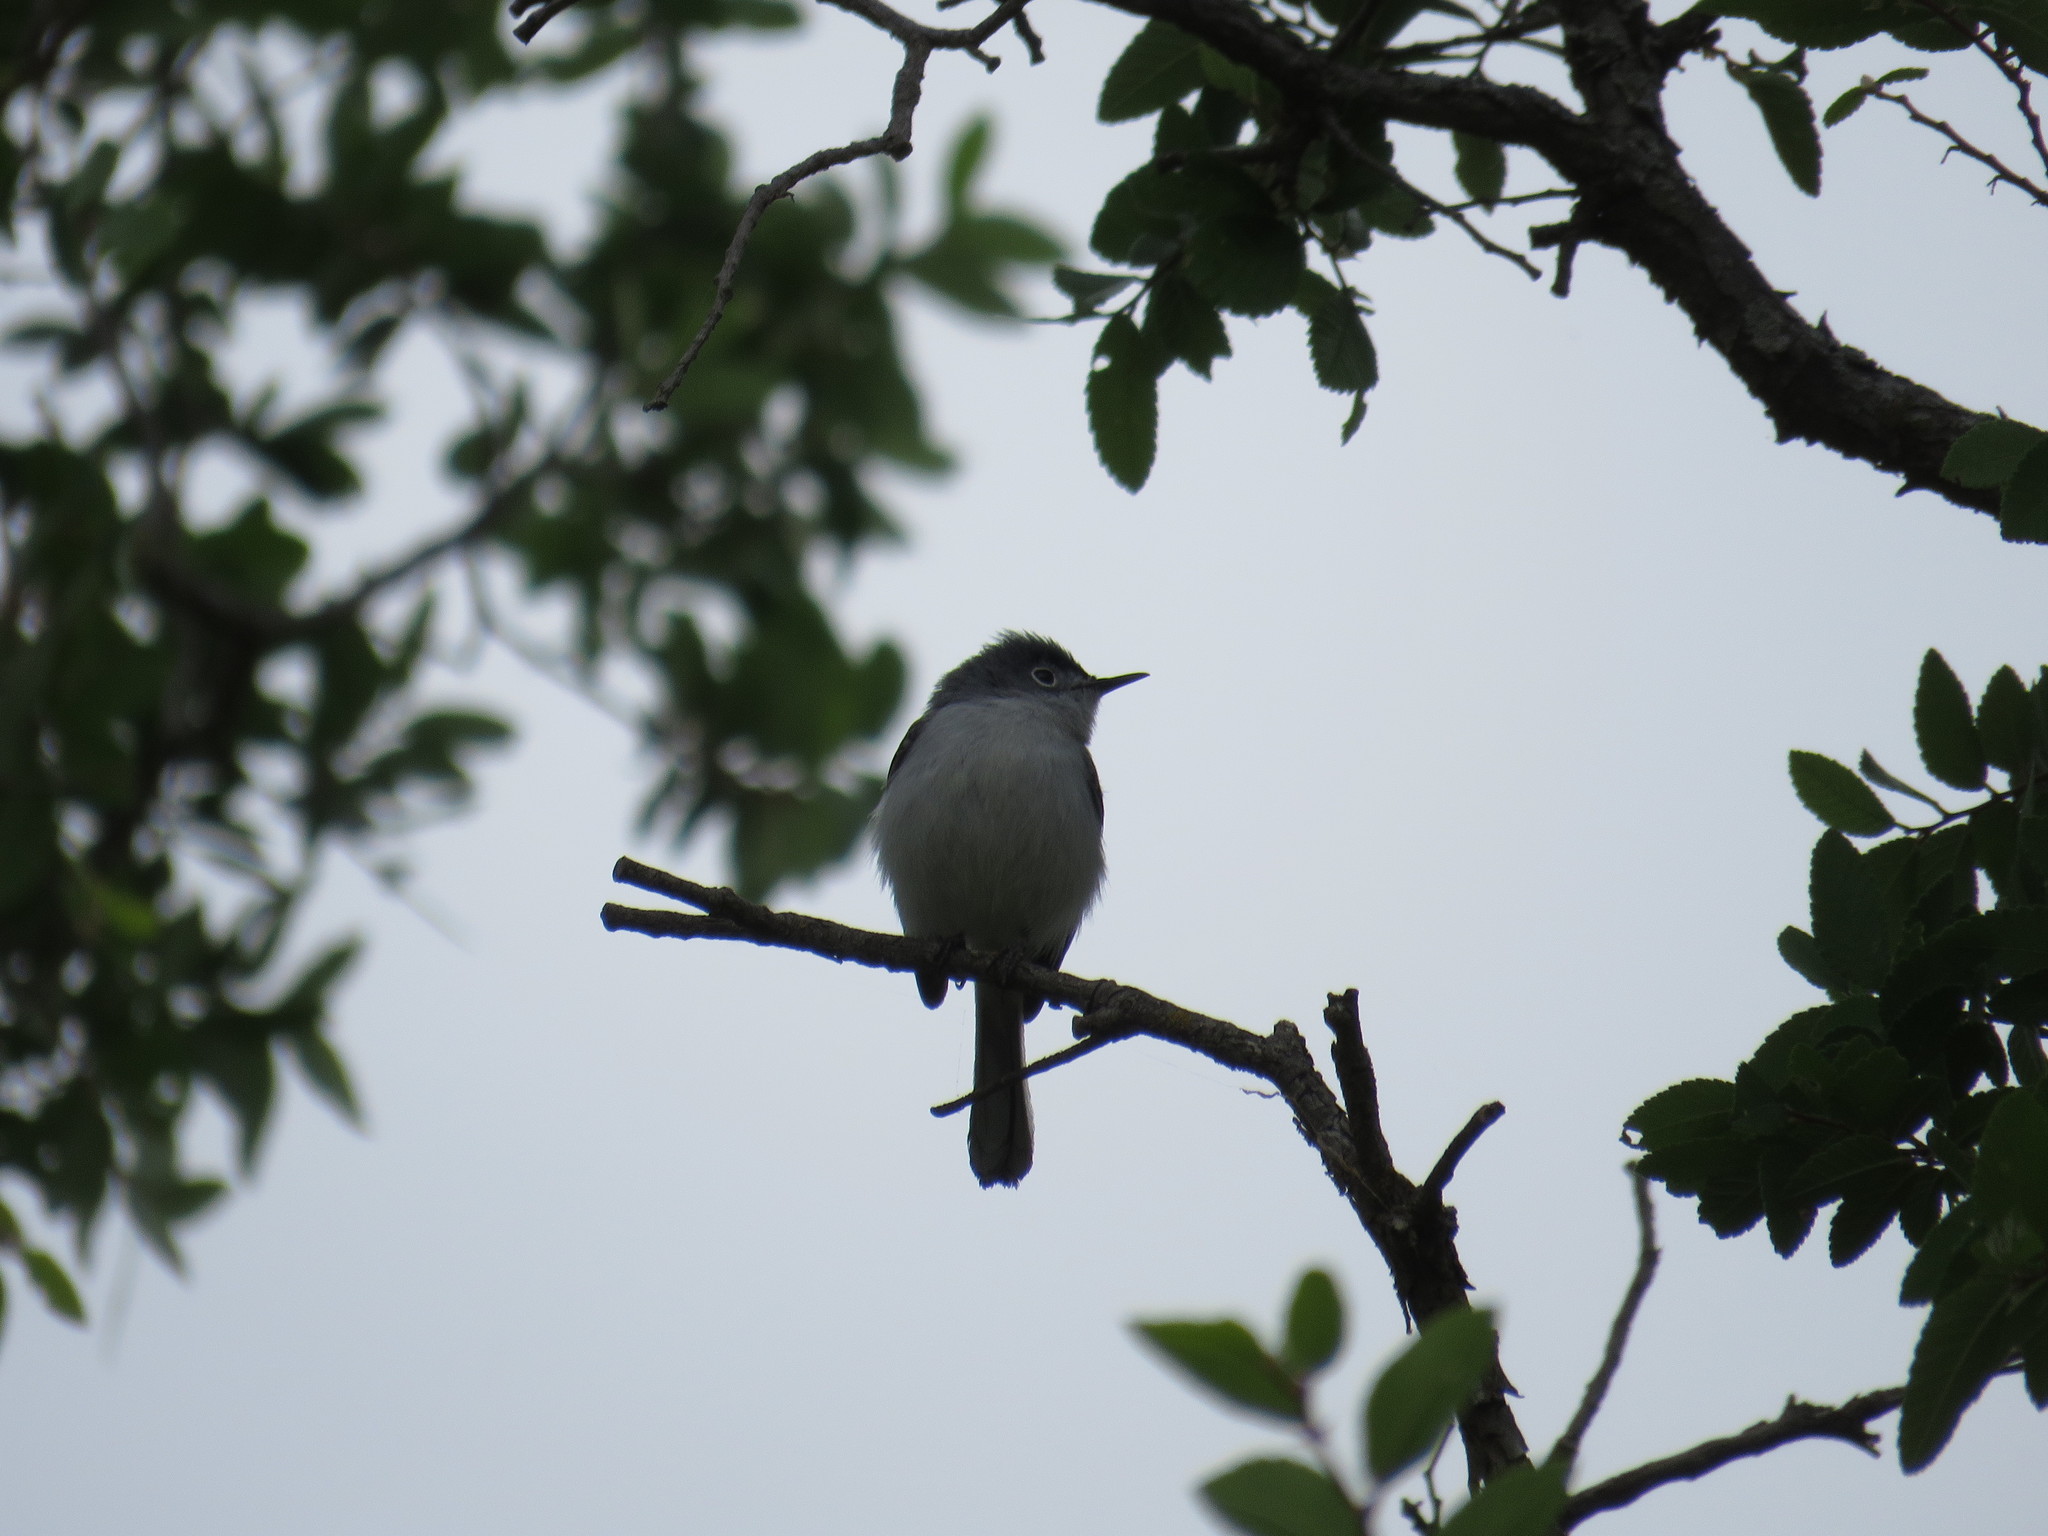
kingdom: Animalia
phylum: Chordata
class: Aves
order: Passeriformes
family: Polioptilidae
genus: Polioptila
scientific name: Polioptila caerulea
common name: Blue-gray gnatcatcher
